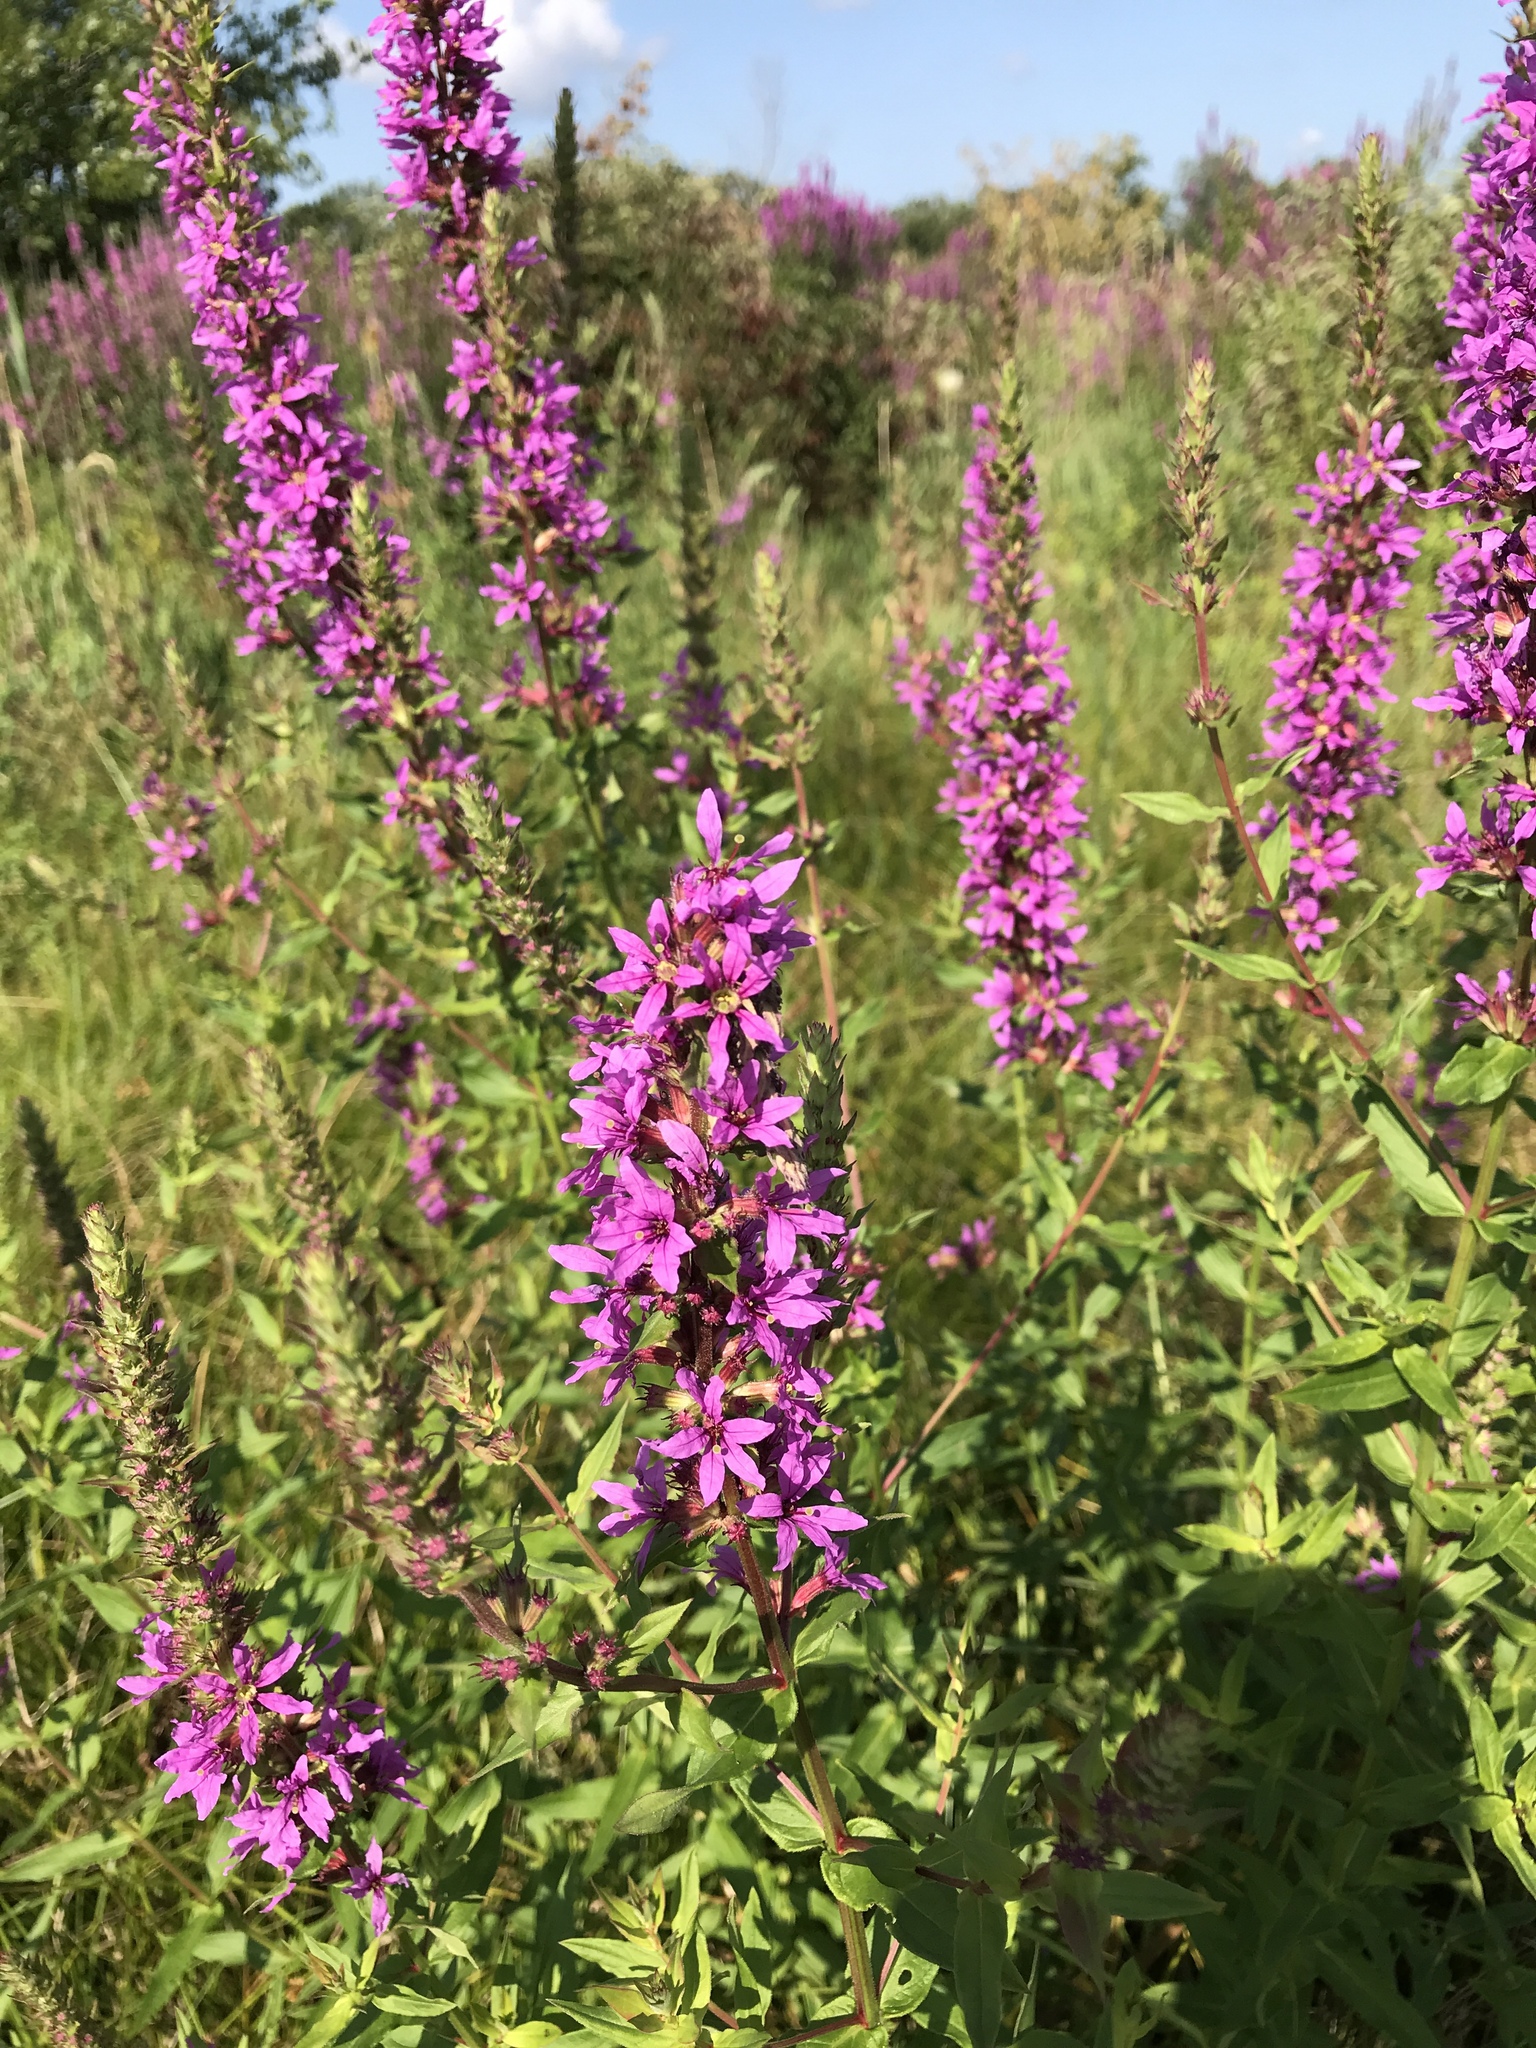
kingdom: Plantae
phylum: Tracheophyta
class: Magnoliopsida
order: Myrtales
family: Lythraceae
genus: Lythrum
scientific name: Lythrum salicaria
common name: Purple loosestrife
